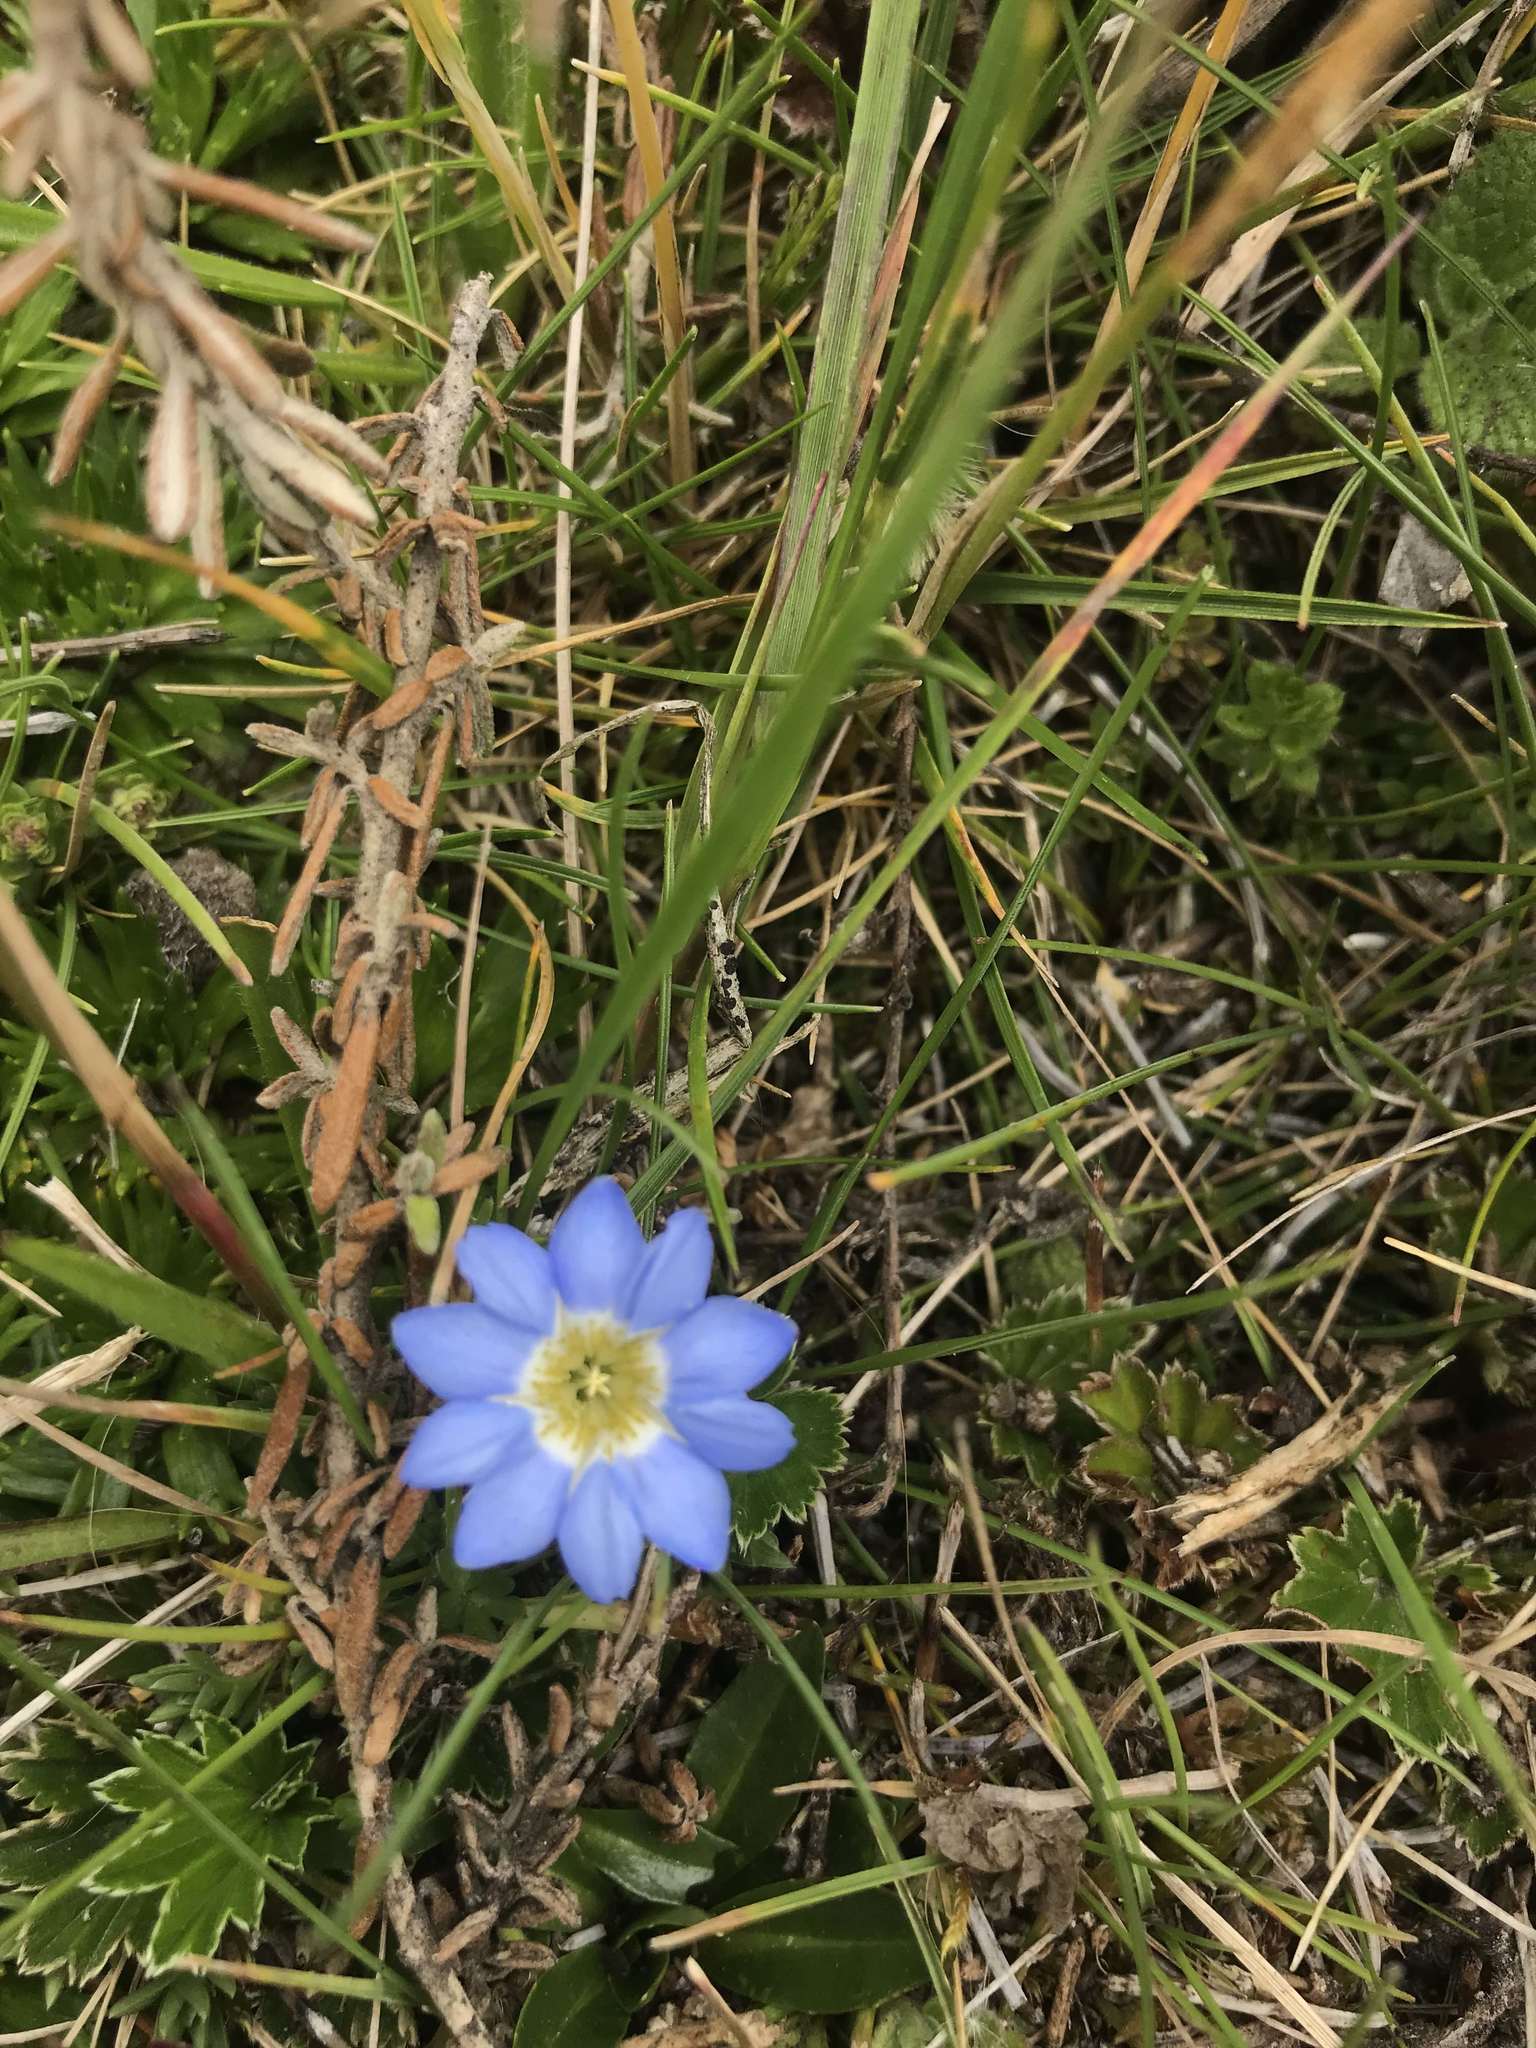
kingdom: Plantae
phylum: Tracheophyta
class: Magnoliopsida
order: Gentianales
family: Gentianaceae
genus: Gentiana
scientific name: Gentiana sedifolia
